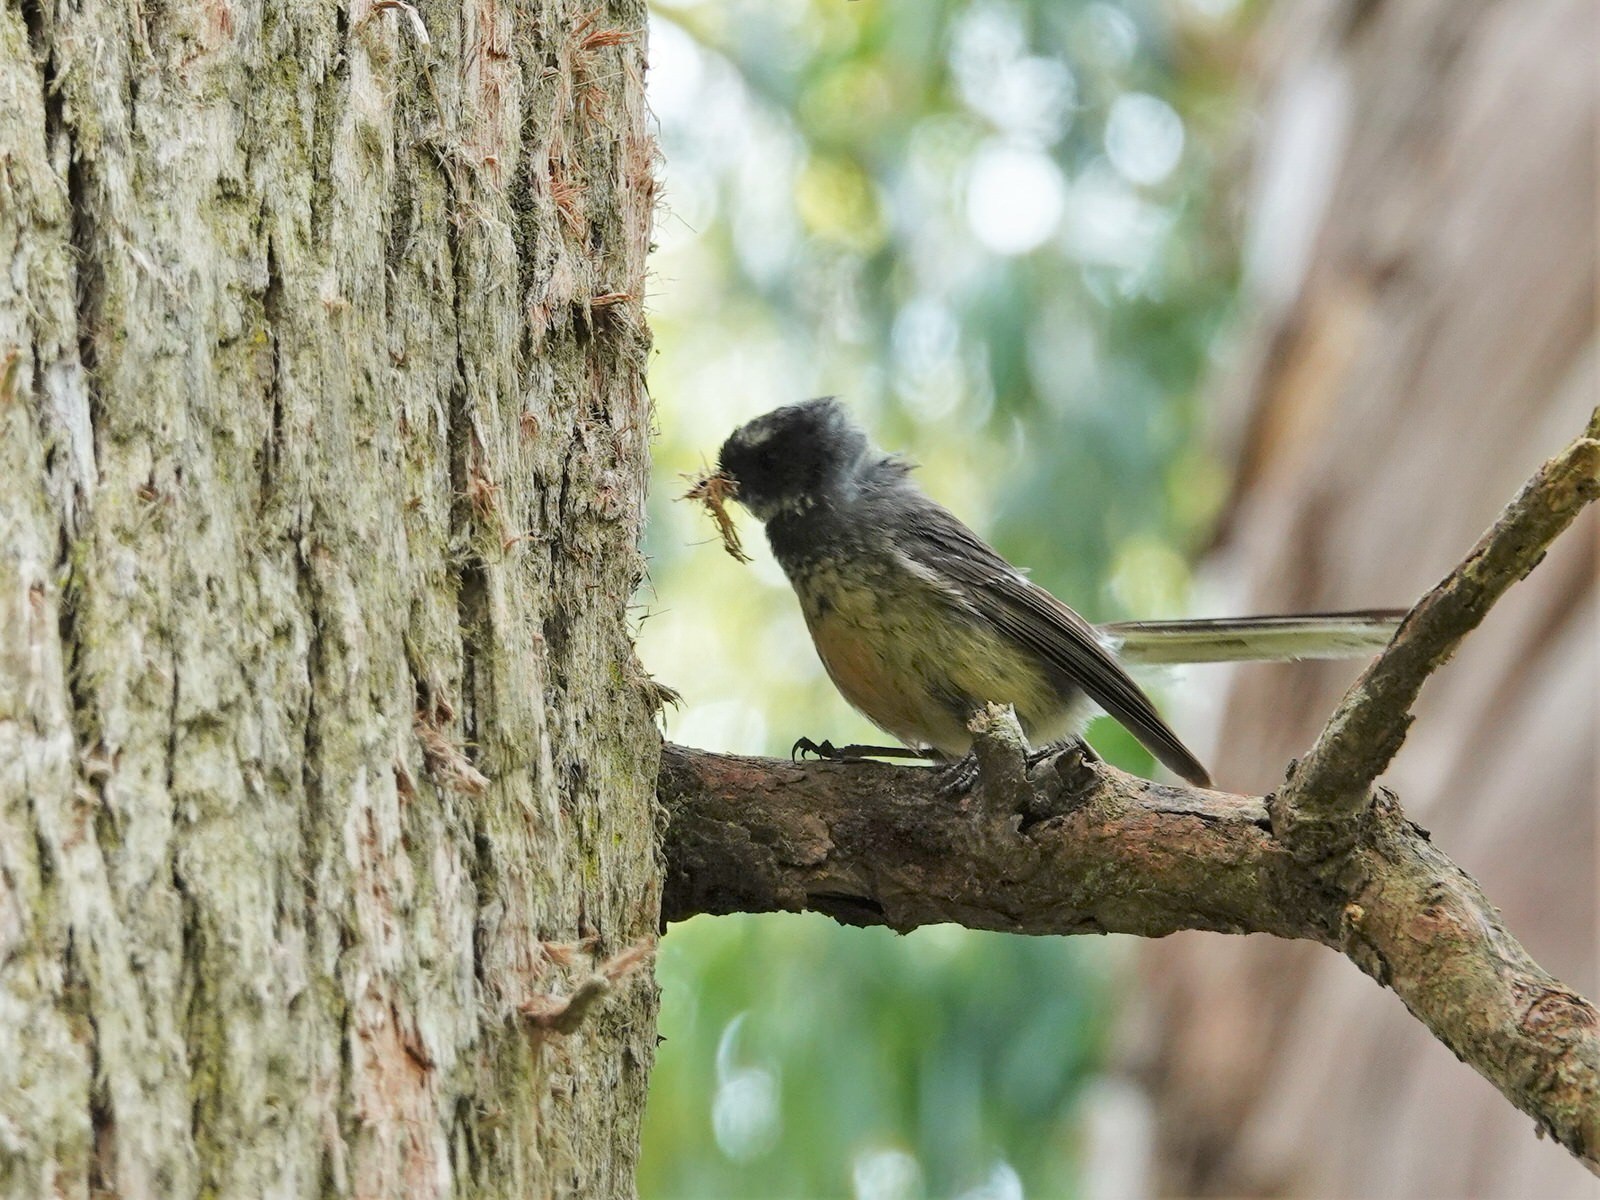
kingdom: Animalia
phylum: Chordata
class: Aves
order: Passeriformes
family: Rhipiduridae
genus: Rhipidura
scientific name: Rhipidura fuliginosa
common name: New zealand fantail
